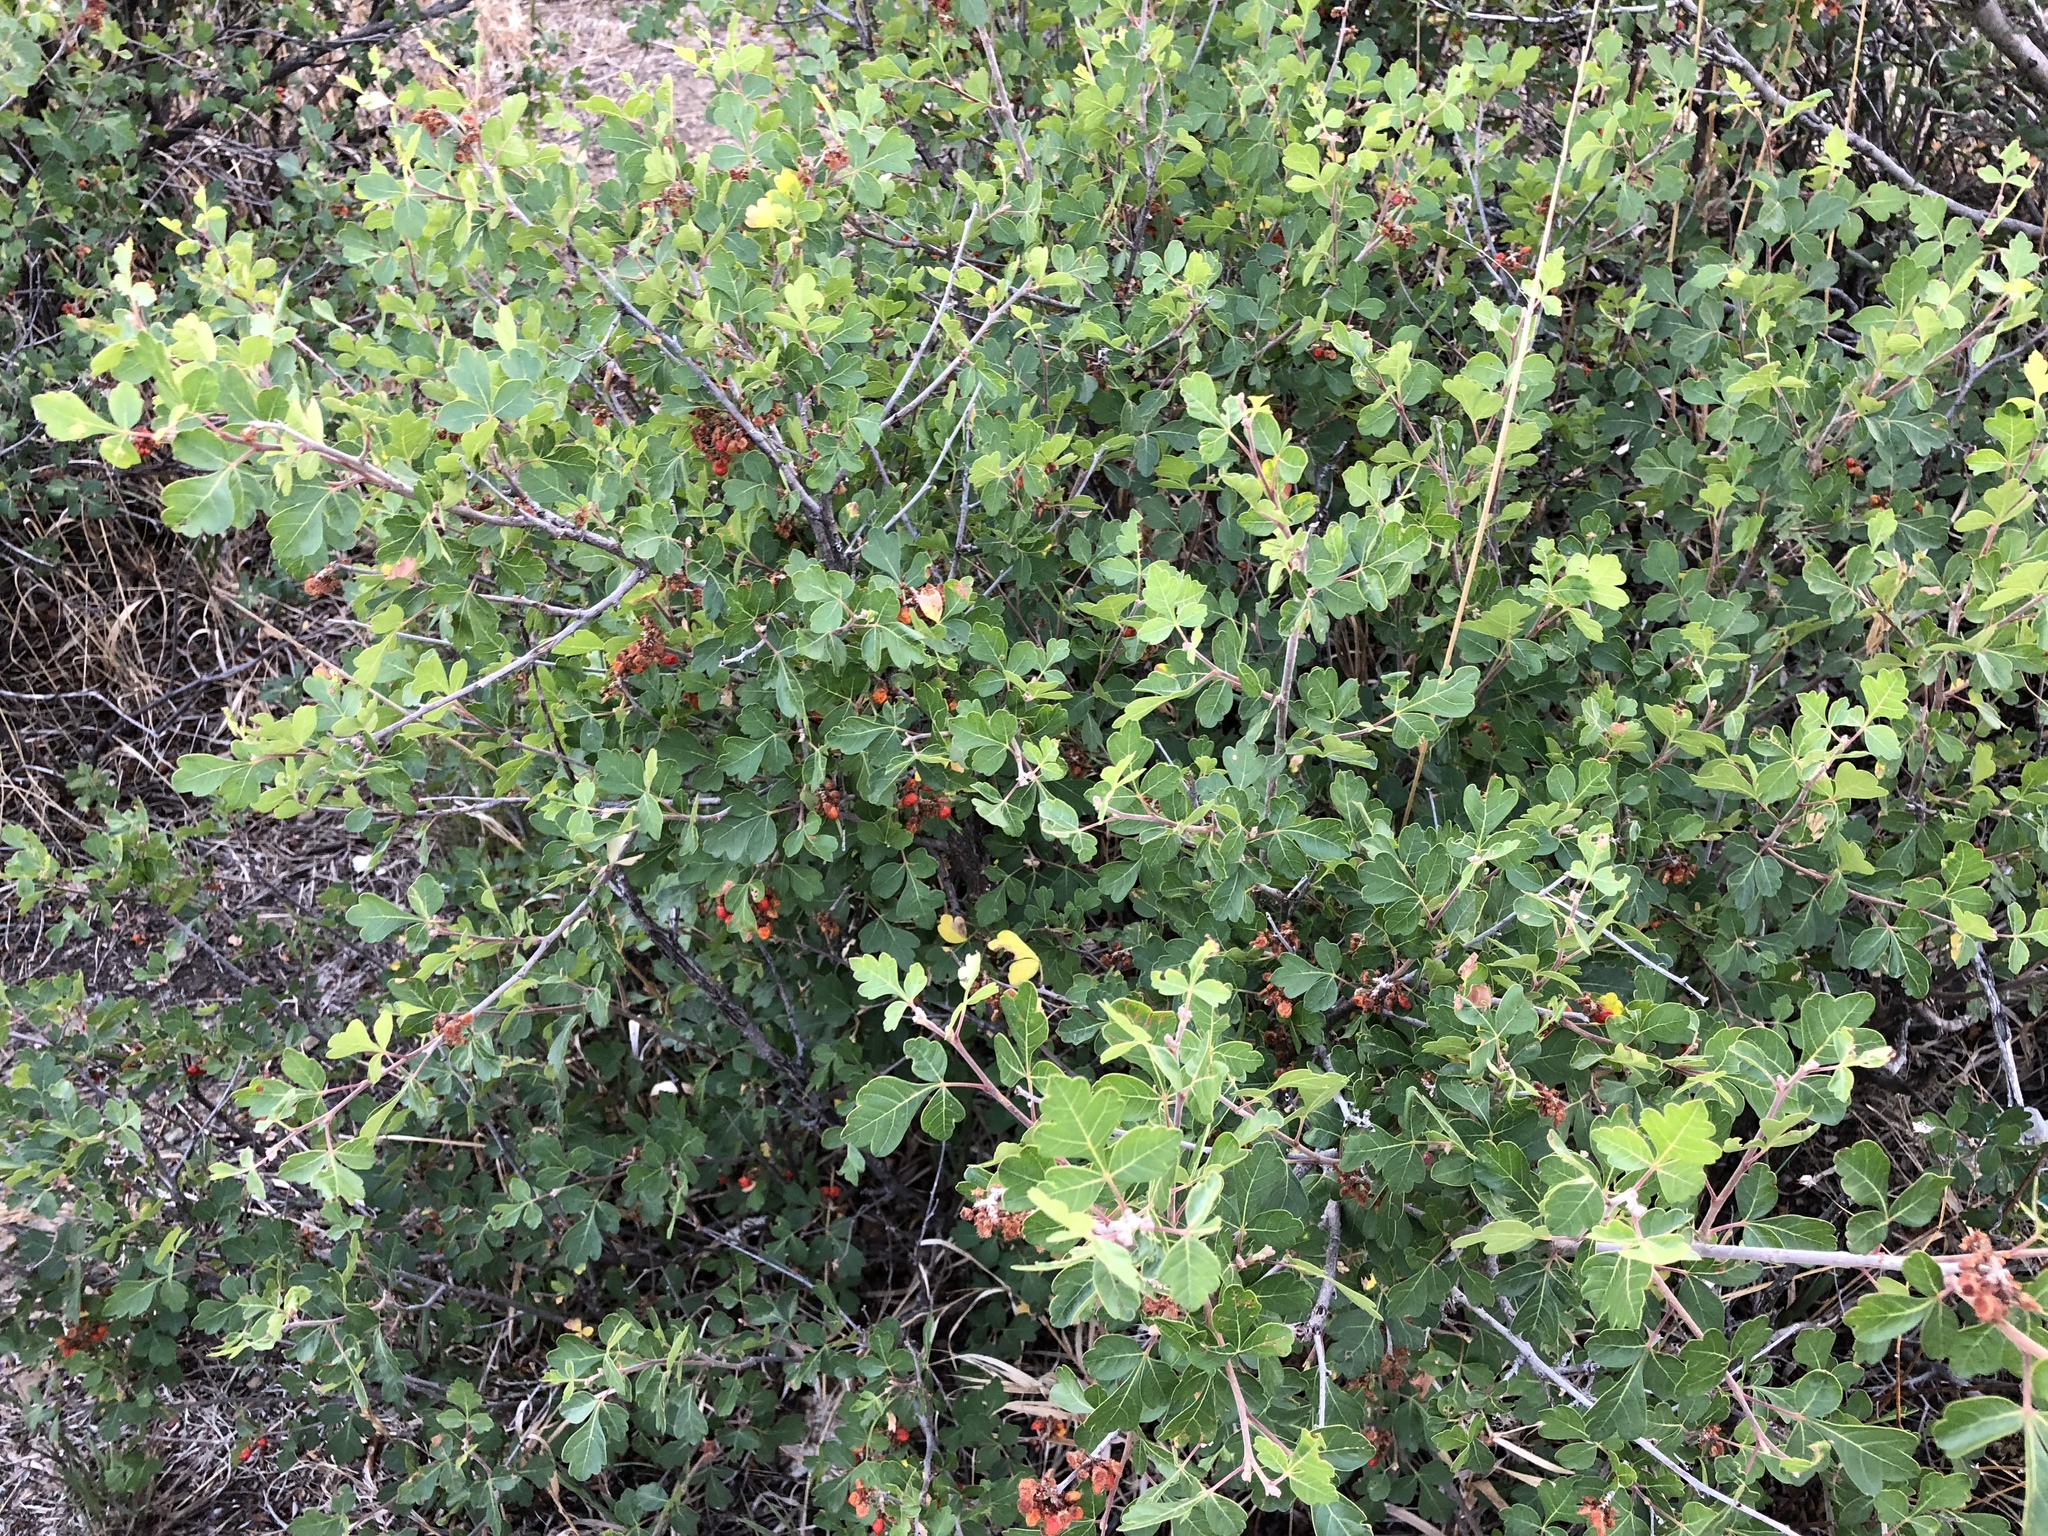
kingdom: Plantae
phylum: Tracheophyta
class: Magnoliopsida
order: Sapindales
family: Anacardiaceae
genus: Rhus
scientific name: Rhus aromatica
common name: Aromatic sumac
